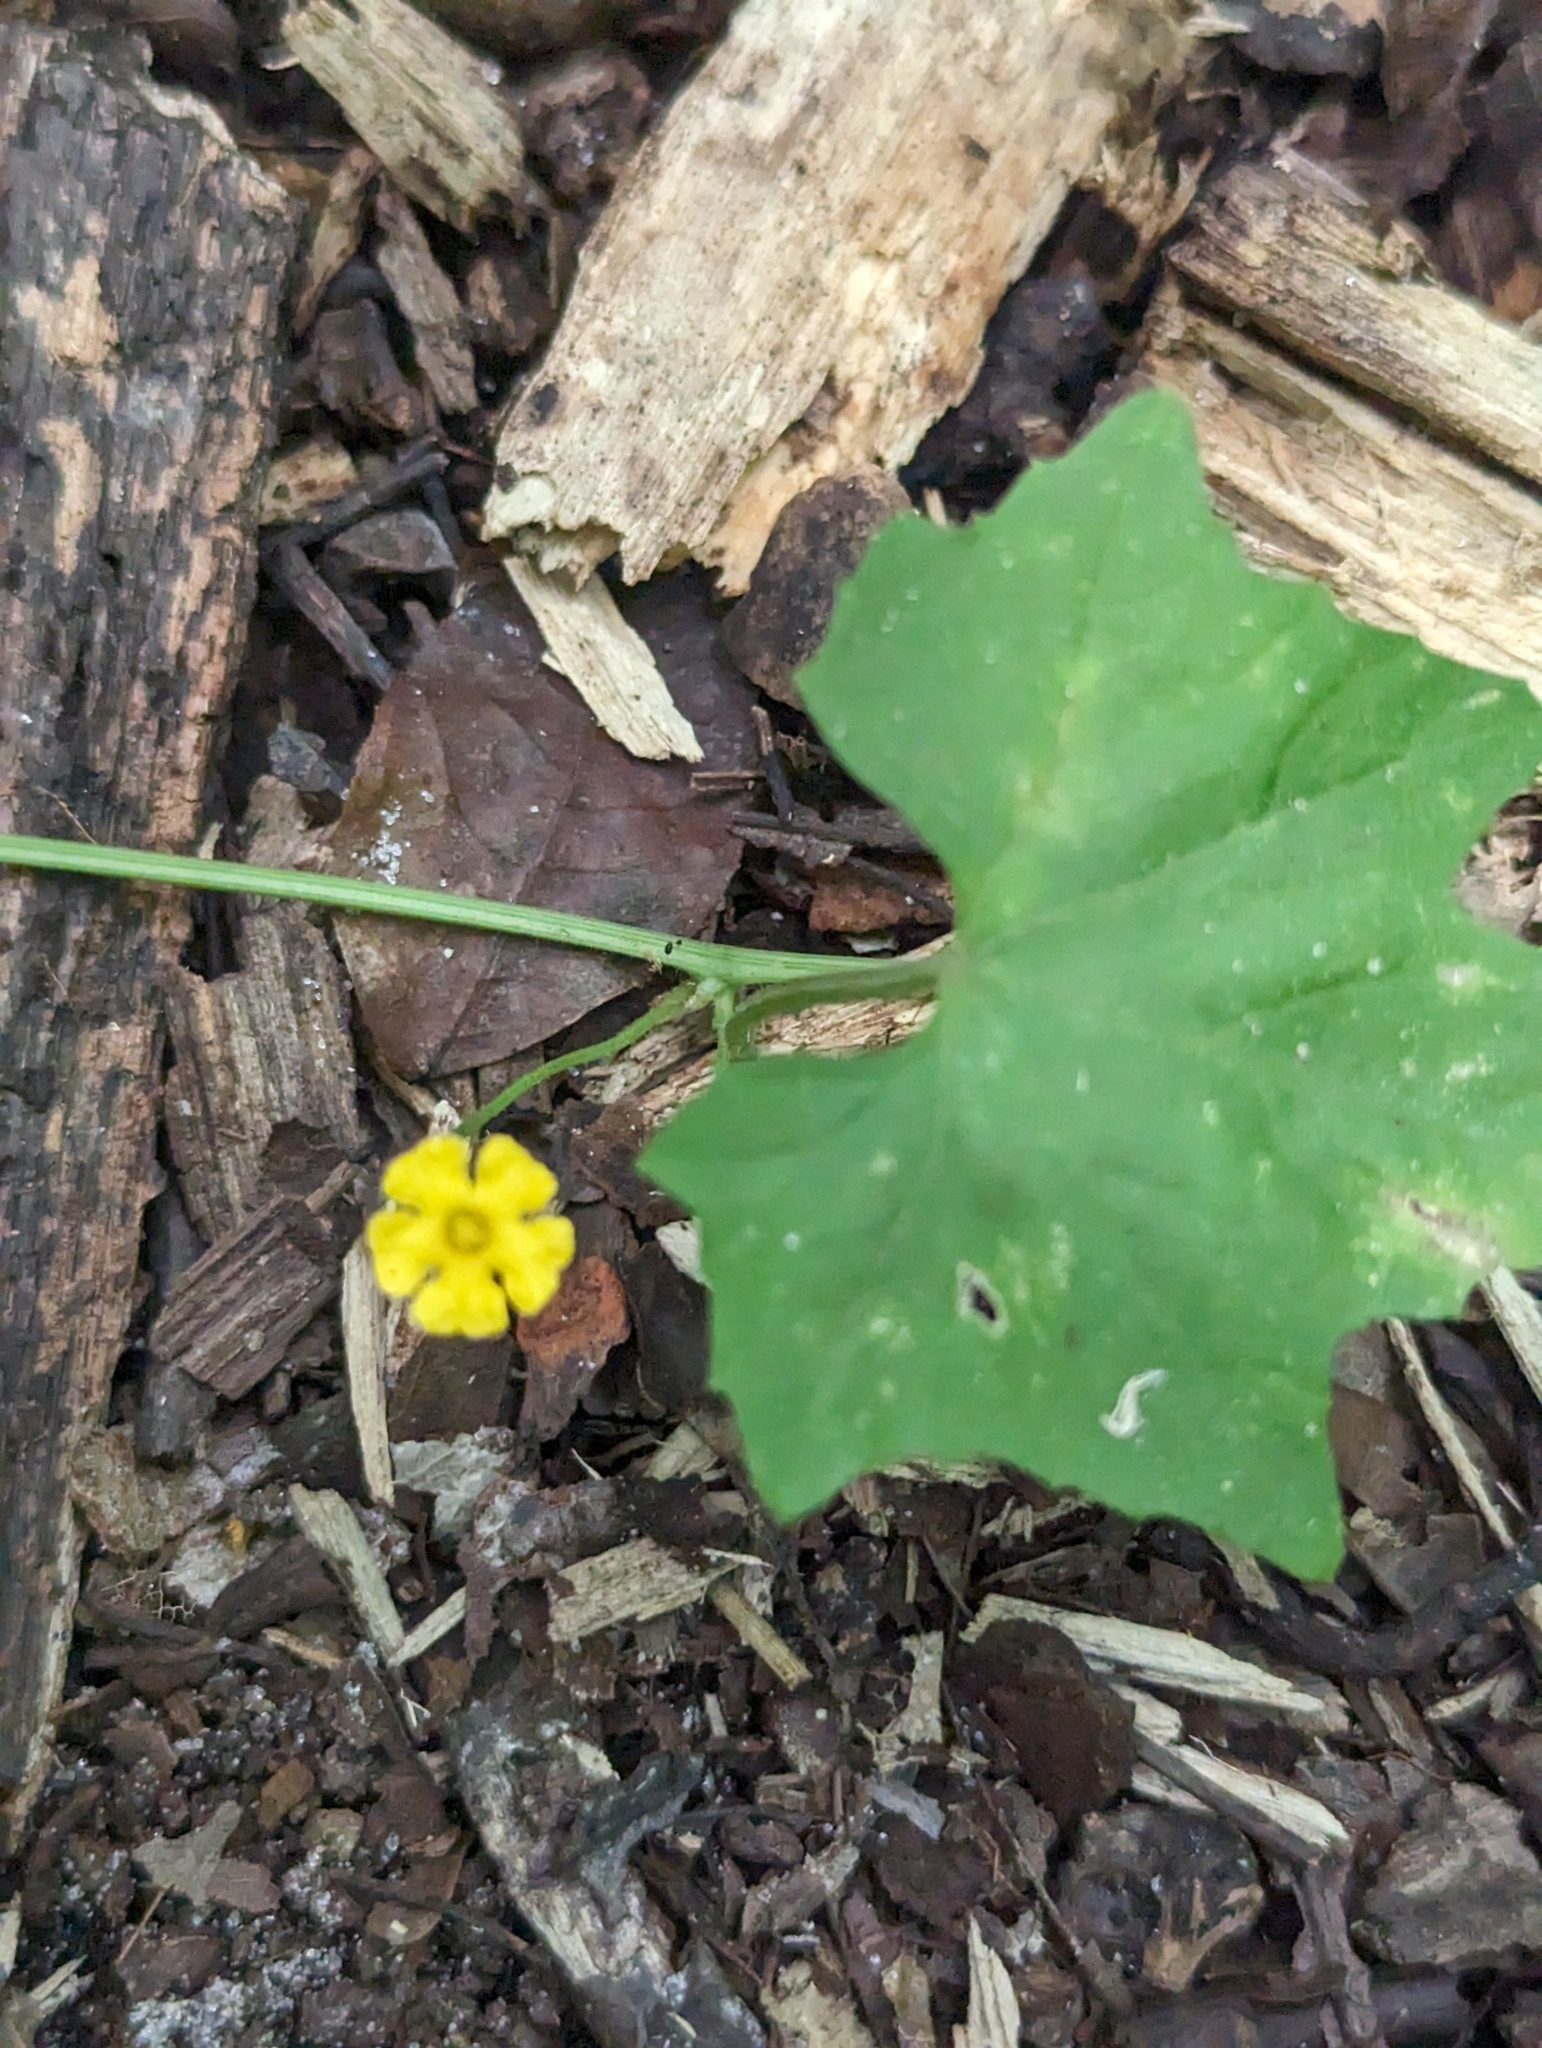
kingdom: Plantae
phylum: Tracheophyta
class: Magnoliopsida
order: Cucurbitales
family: Cucurbitaceae
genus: Melothria
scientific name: Melothria pendula
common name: Creeping-cucumber
